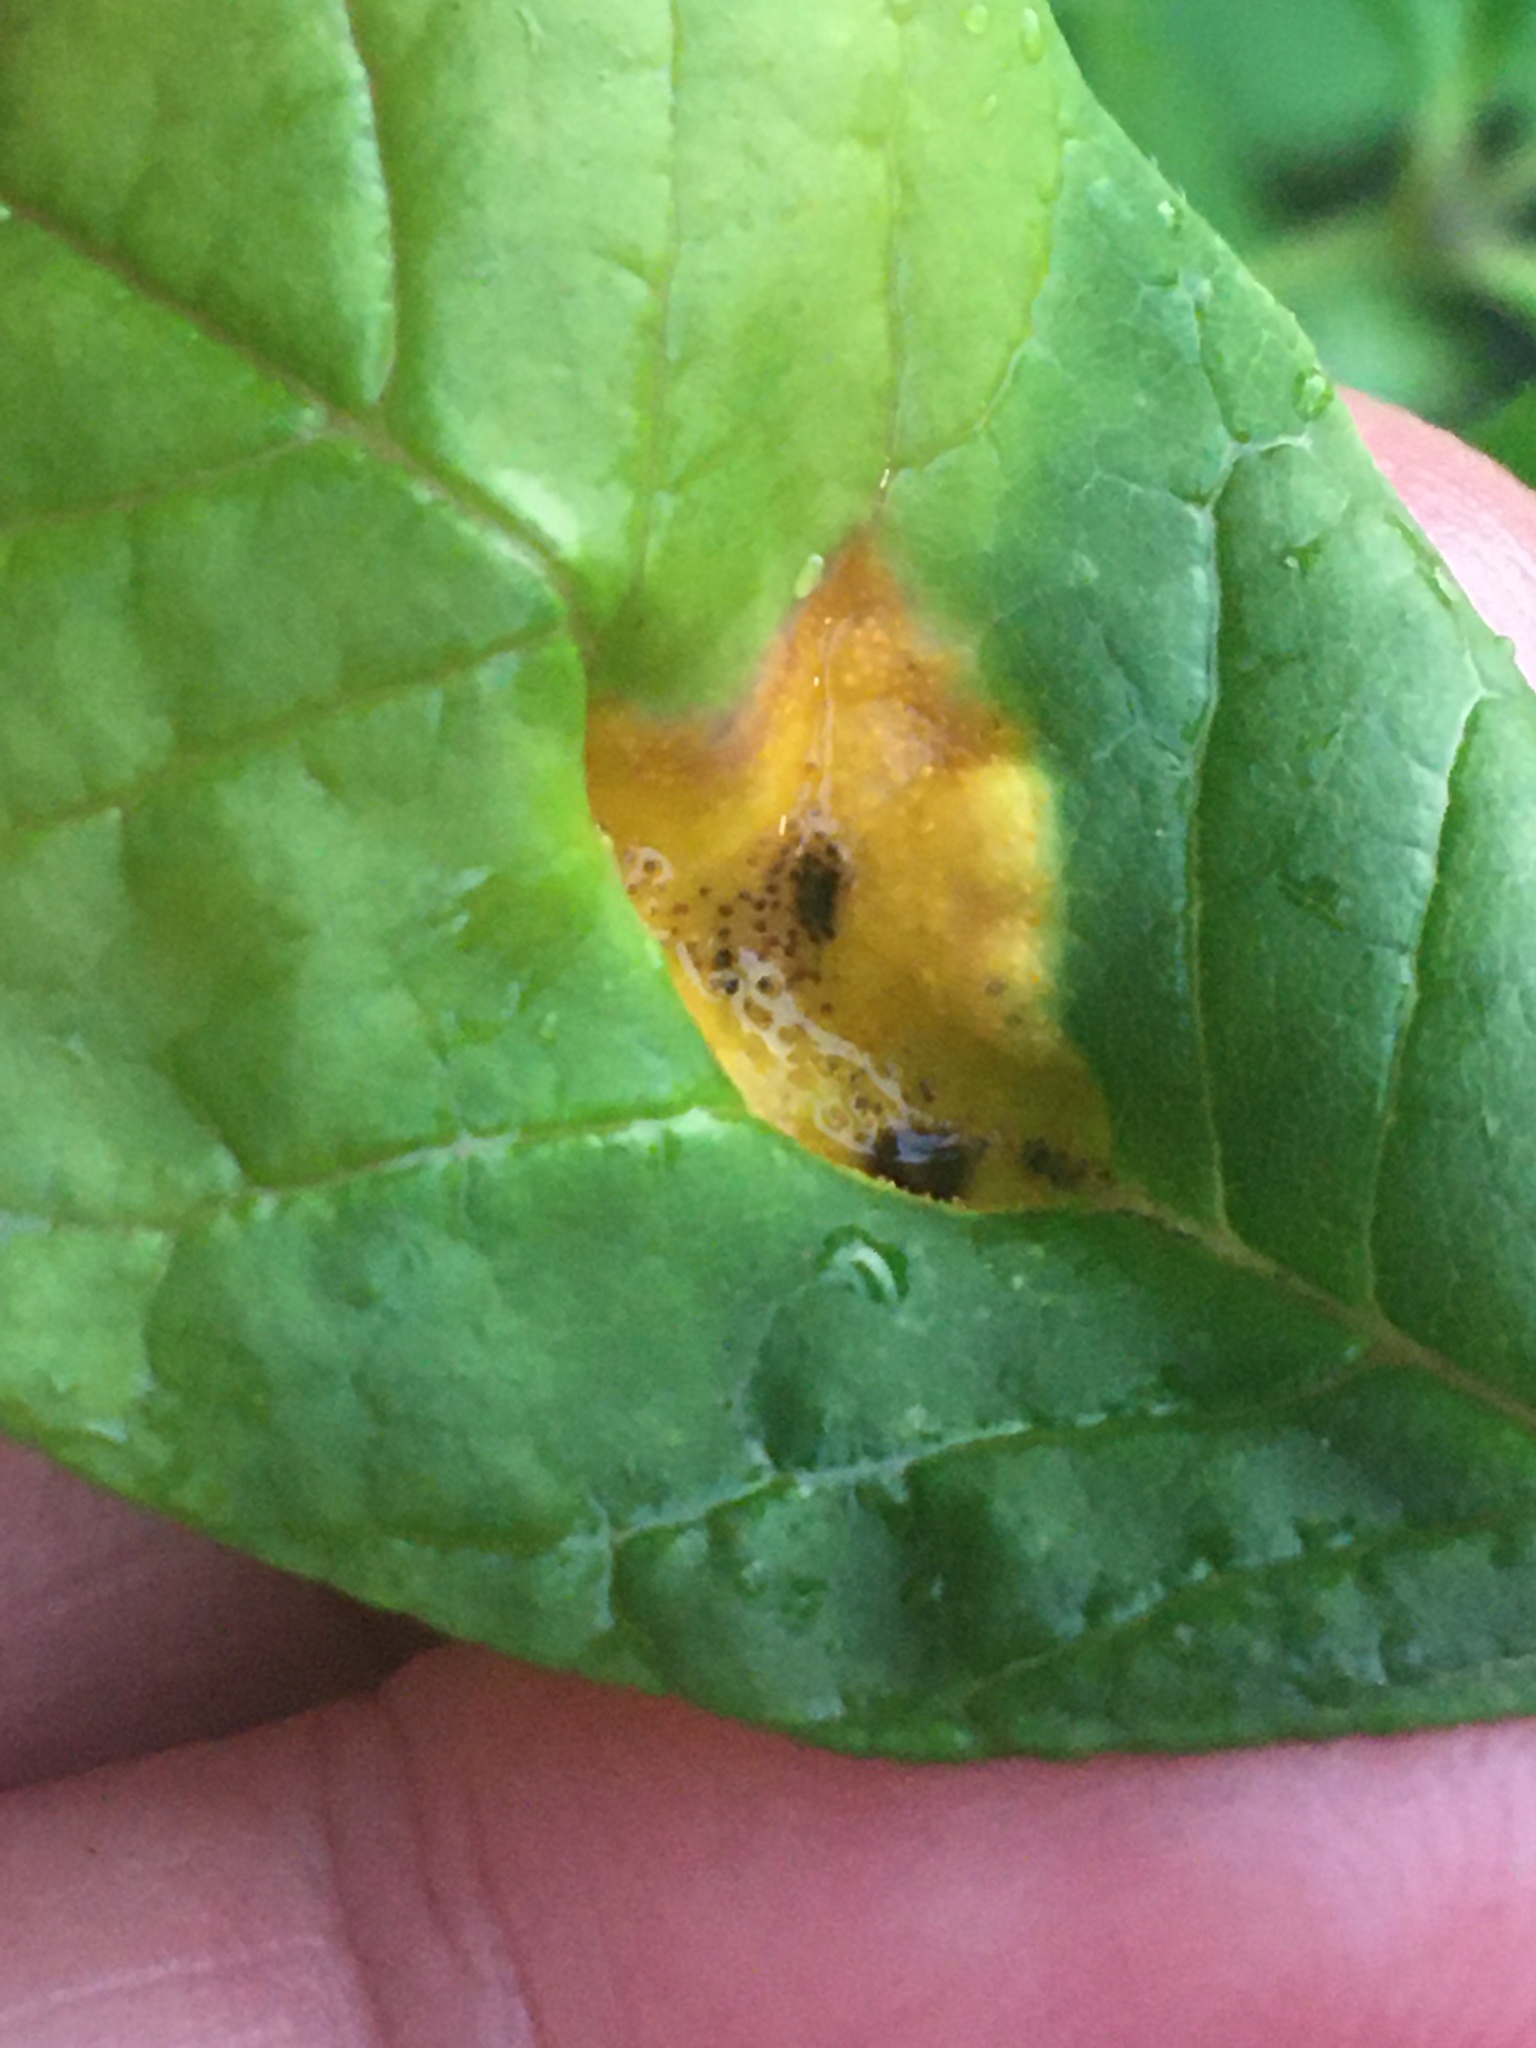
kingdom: Fungi
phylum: Basidiomycota
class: Pucciniomycetes
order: Pucciniales
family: Pucciniaceae
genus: Puccinia
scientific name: Puccinia sparganioidis
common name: Ash rust
